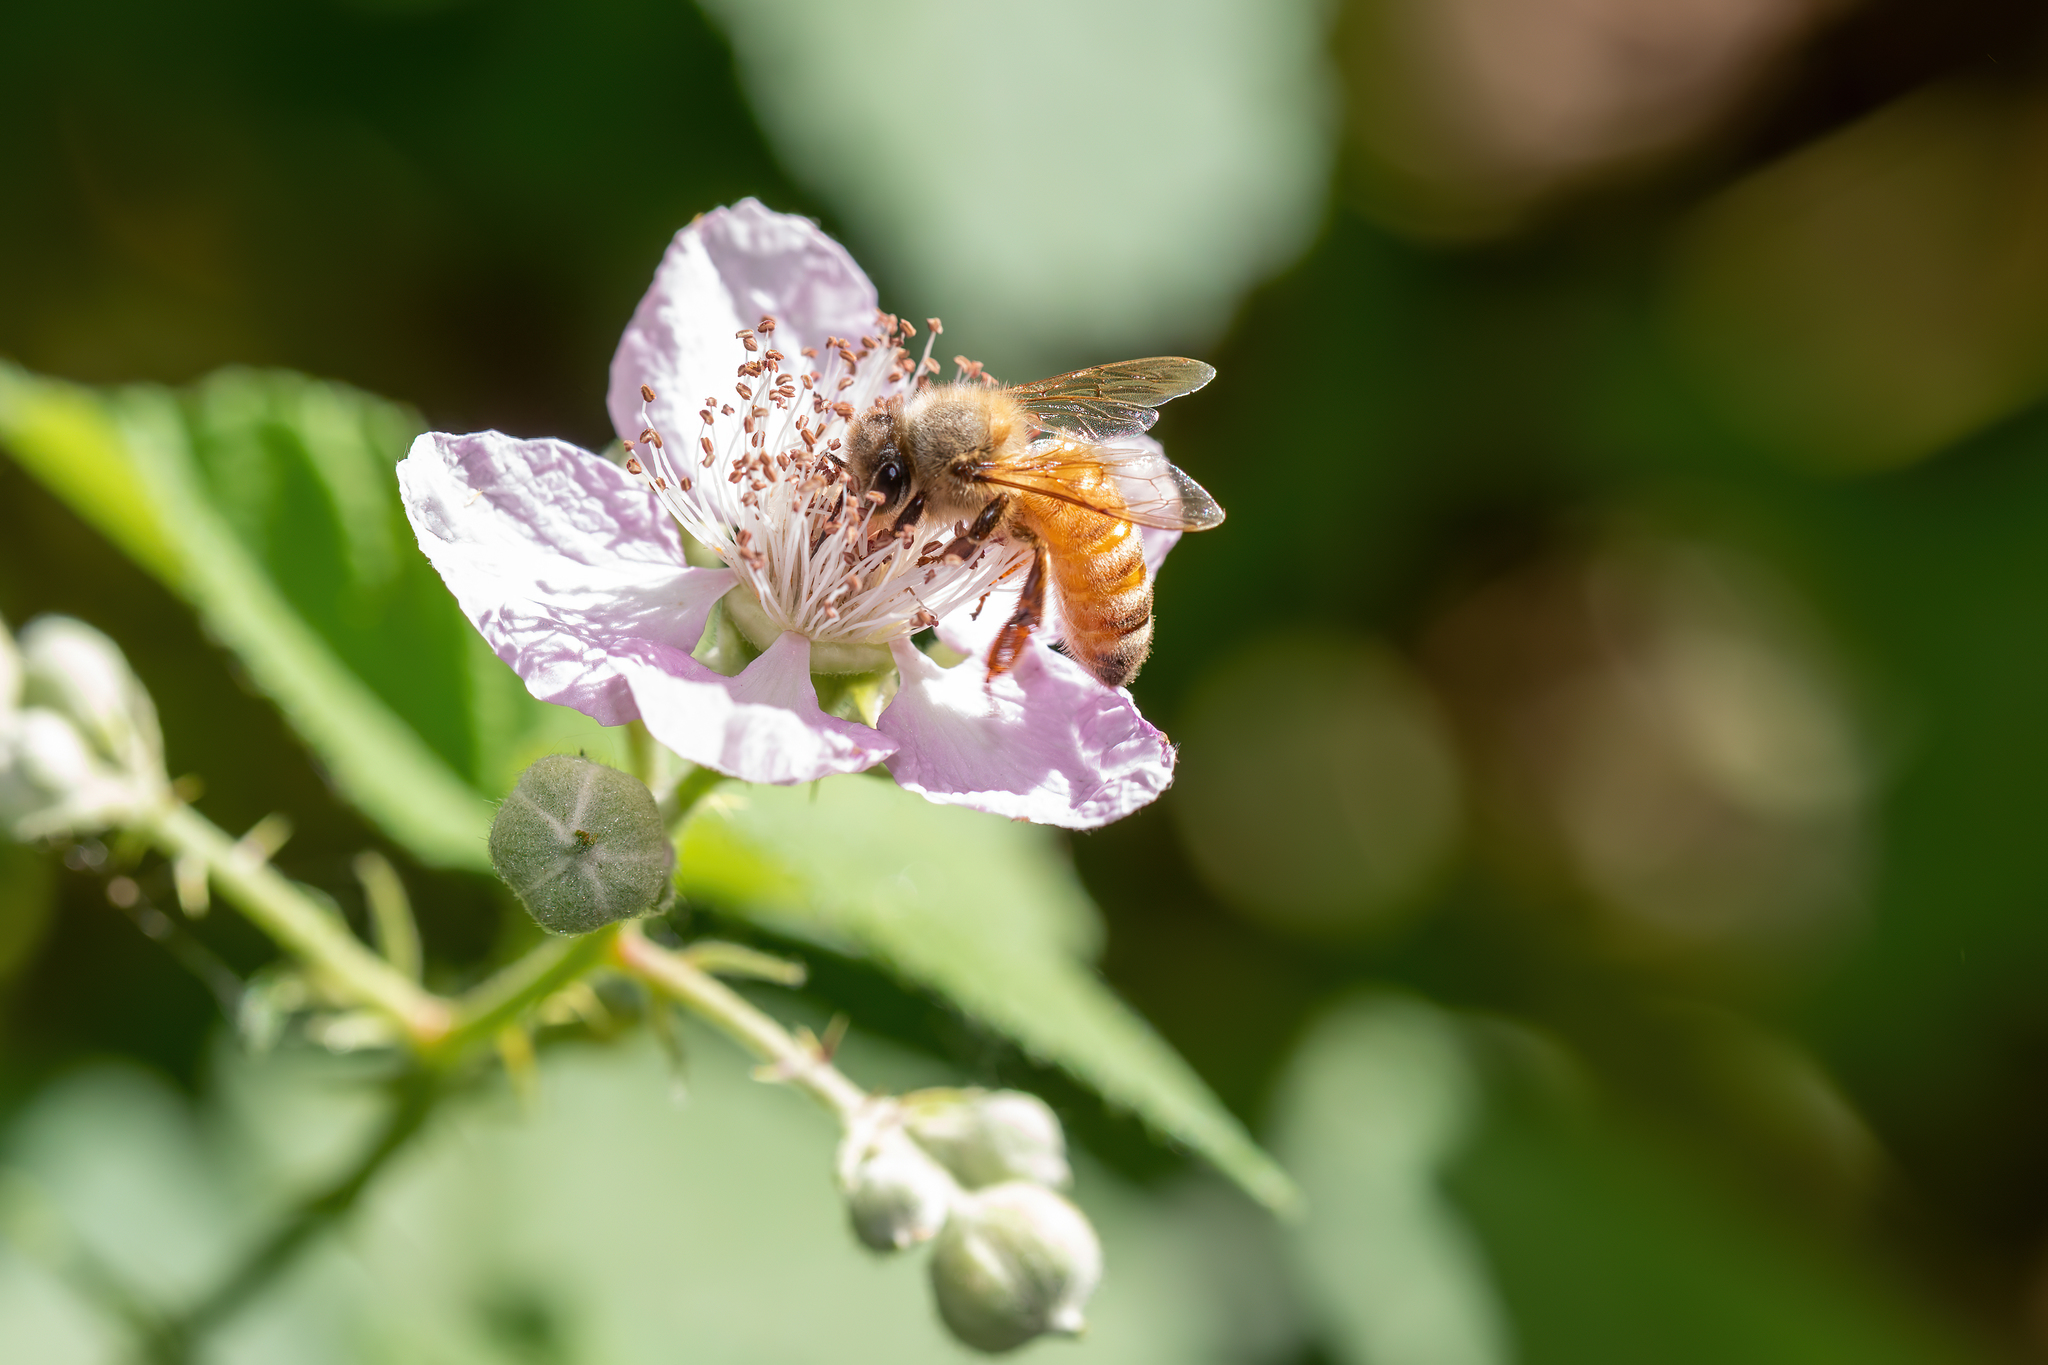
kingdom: Animalia
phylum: Arthropoda
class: Insecta
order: Hymenoptera
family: Apidae
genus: Apis
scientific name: Apis mellifera
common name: Honey bee
